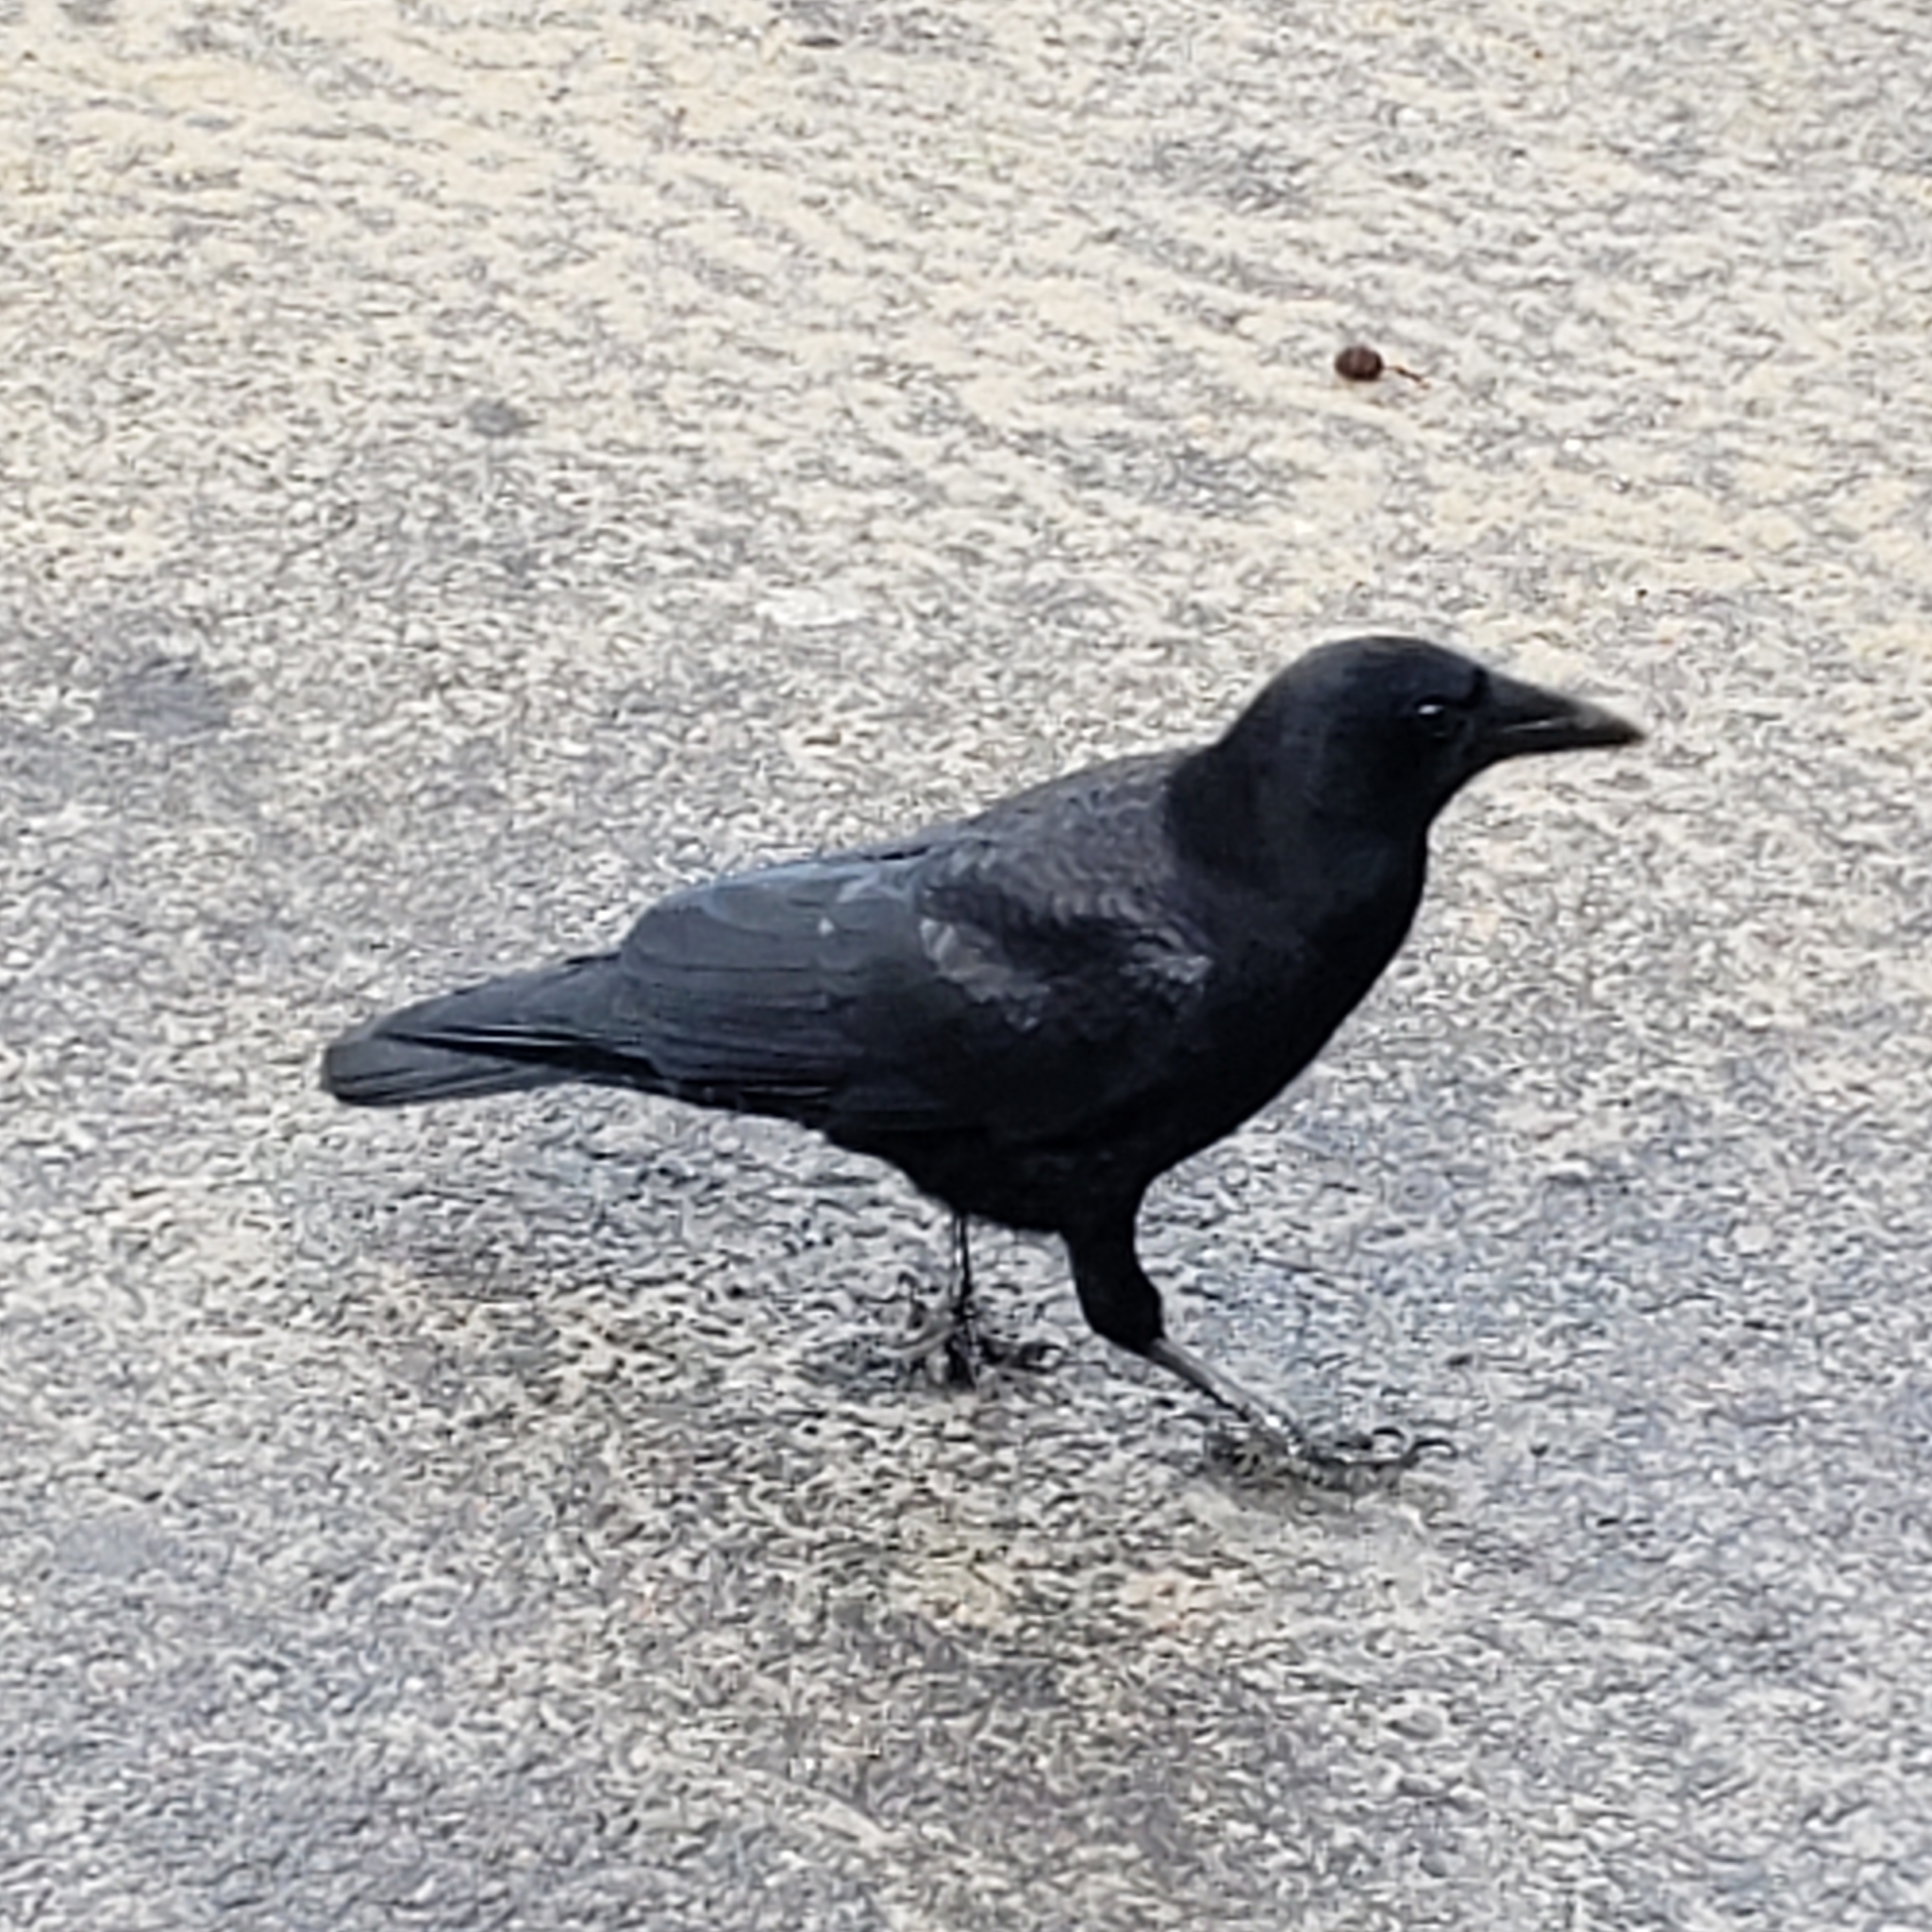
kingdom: Animalia
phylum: Chordata
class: Aves
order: Passeriformes
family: Corvidae
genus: Corvus
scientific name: Corvus brachyrhynchos
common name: American crow
